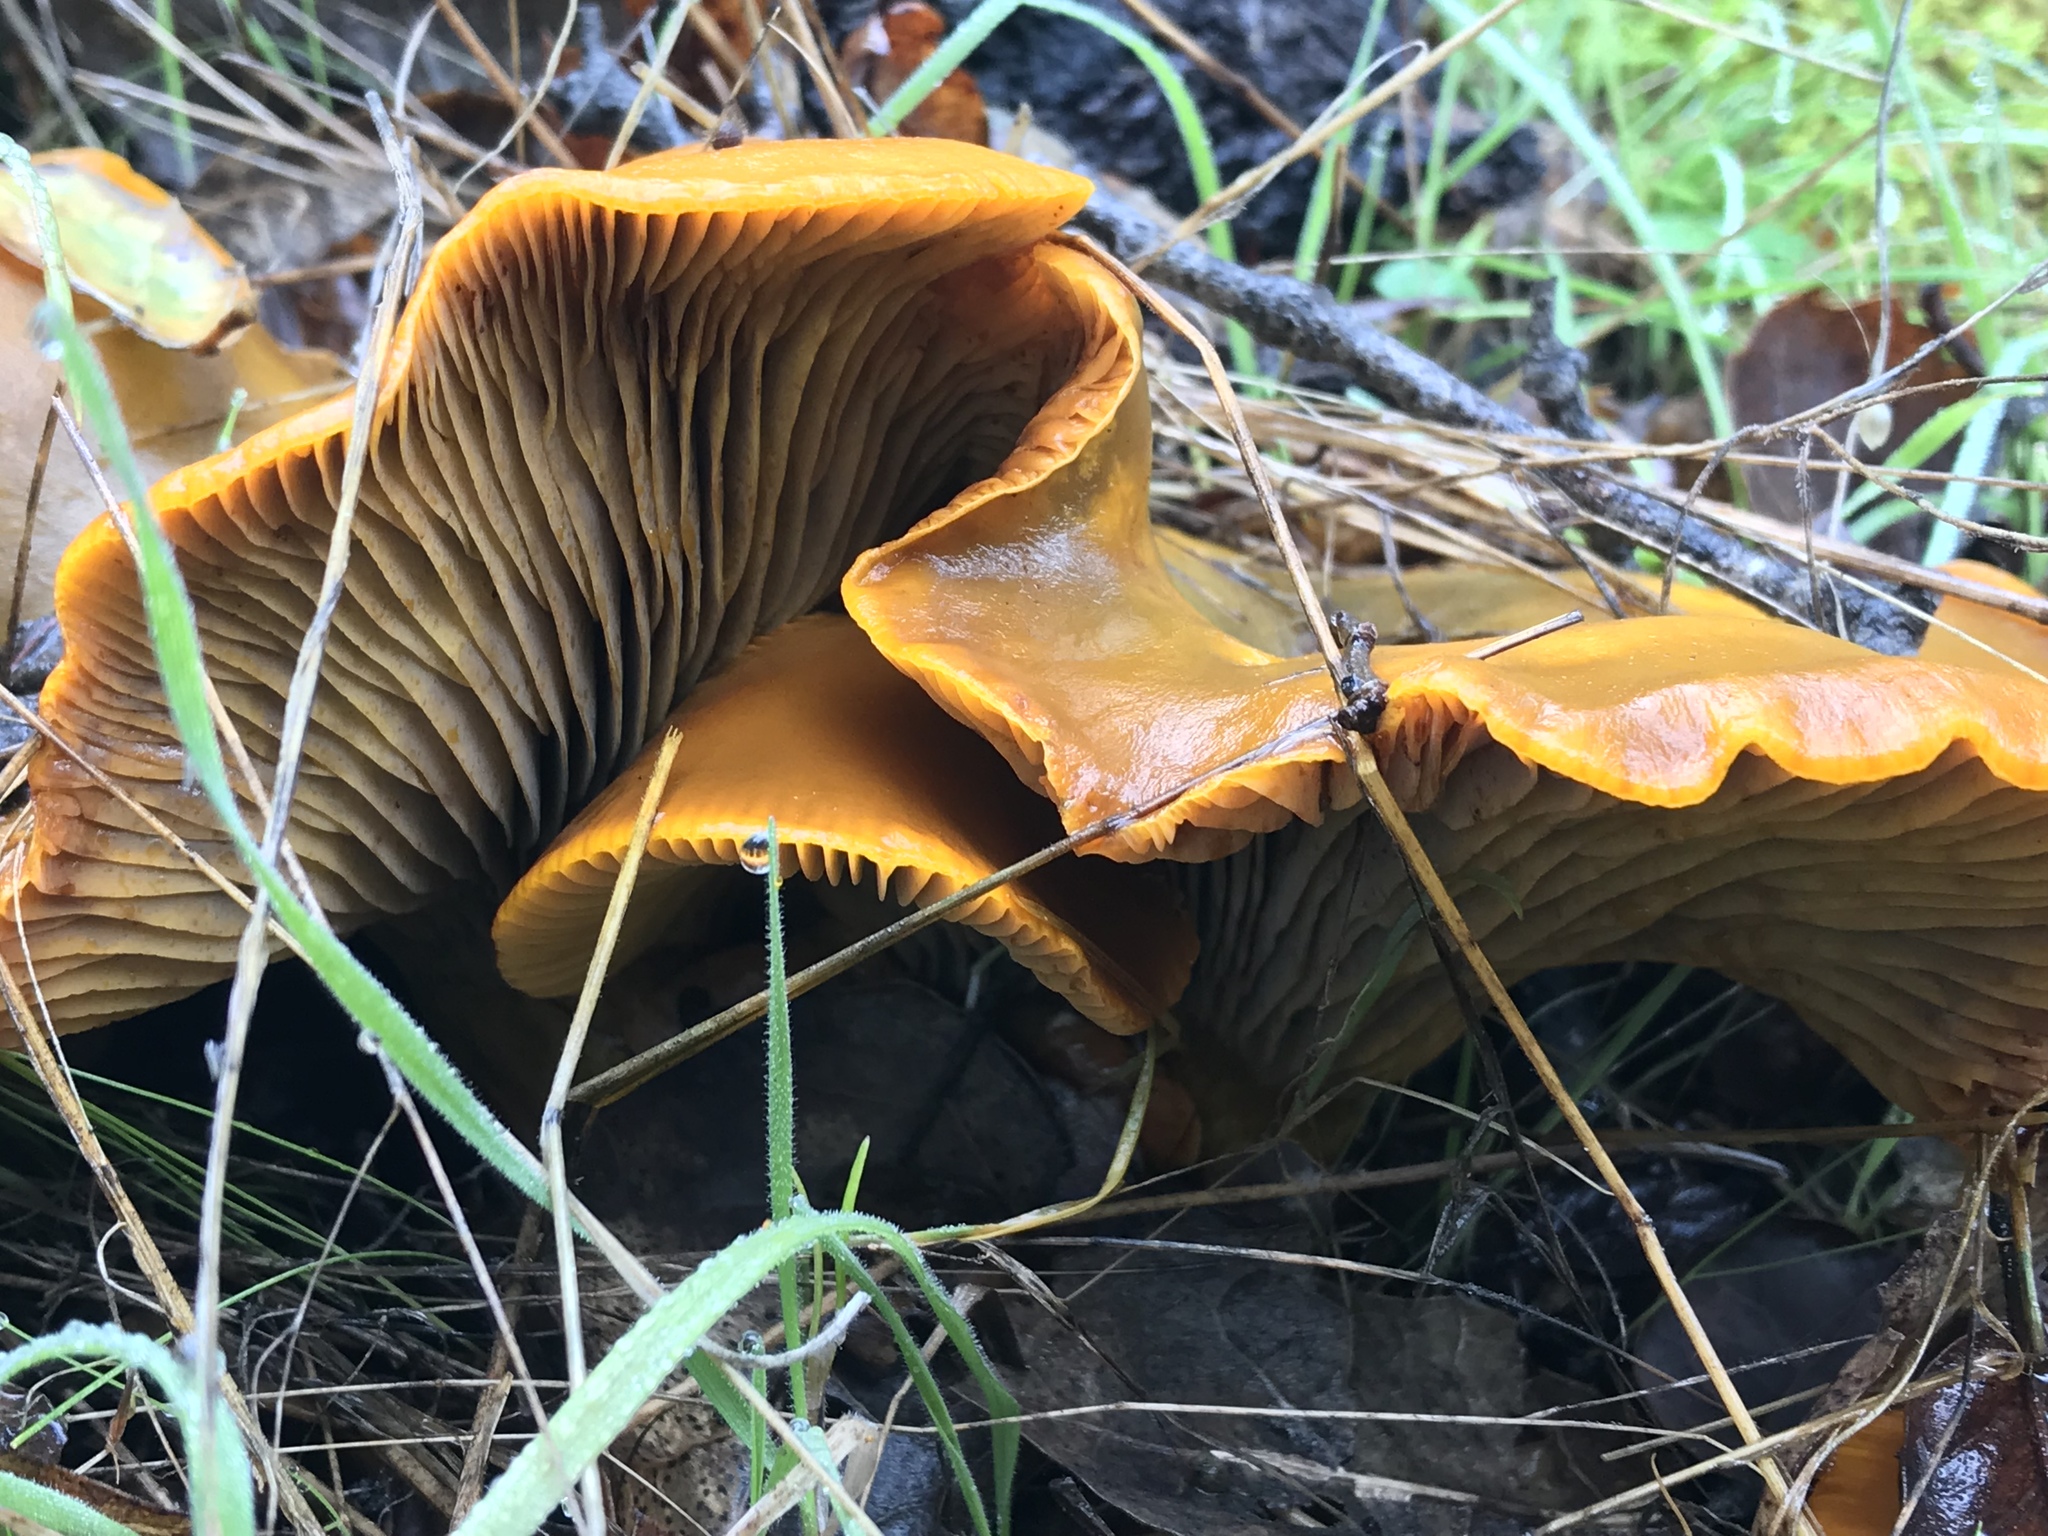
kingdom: Fungi
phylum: Basidiomycota
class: Agaricomycetes
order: Agaricales
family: Omphalotaceae
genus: Omphalotus
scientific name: Omphalotus olivascens
